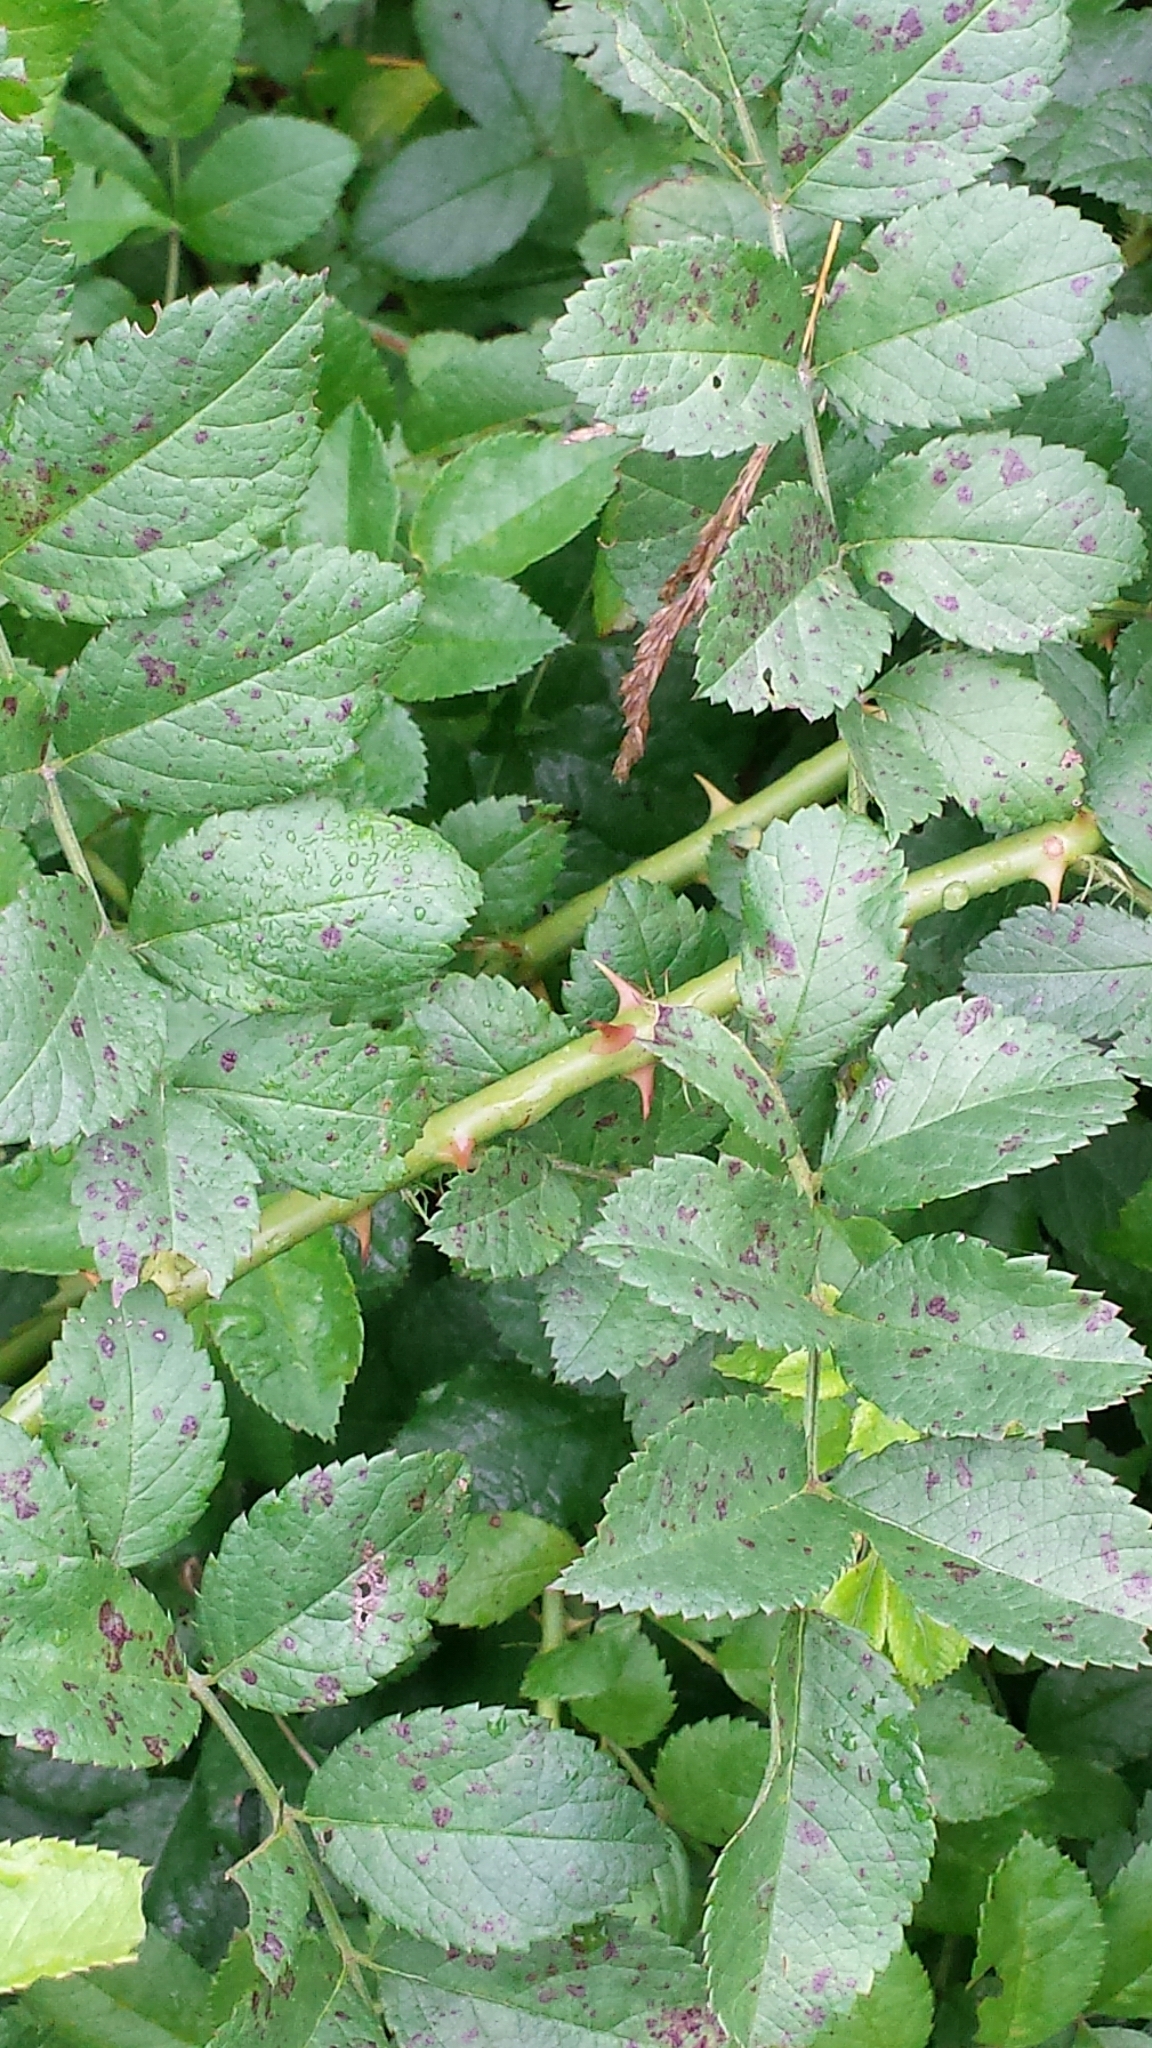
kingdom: Plantae
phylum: Tracheophyta
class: Magnoliopsida
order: Rosales
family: Rosaceae
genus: Rosa
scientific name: Rosa multiflora
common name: Multiflora rose
